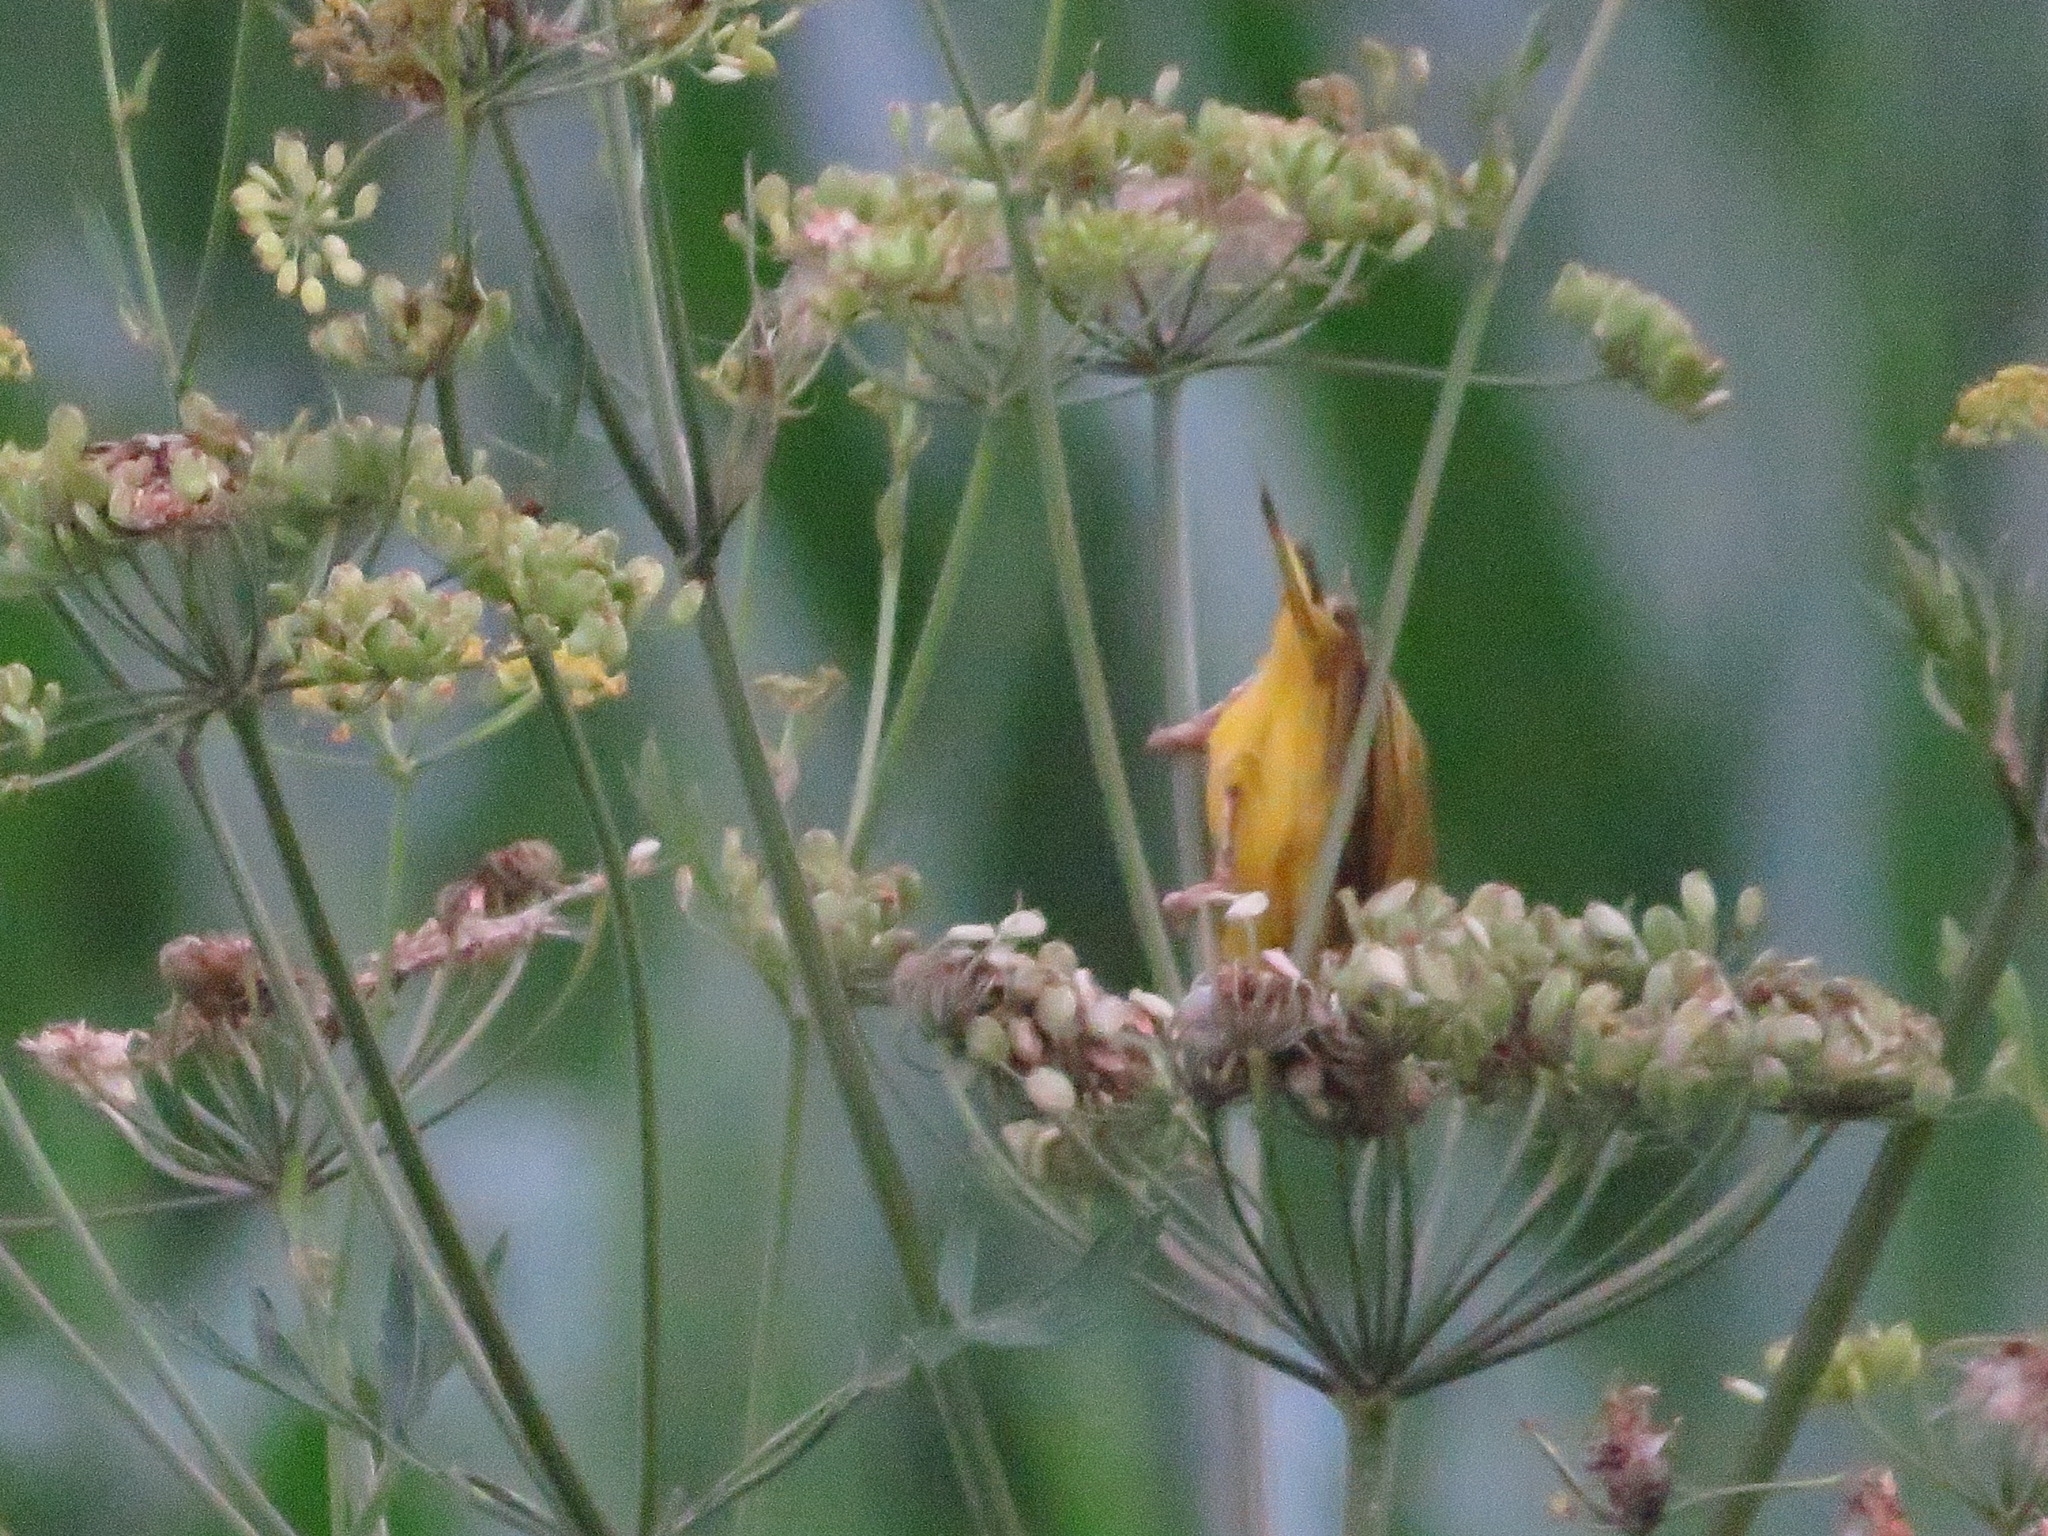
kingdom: Animalia
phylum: Chordata
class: Aves
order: Passeriformes
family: Parulidae
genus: Setophaga
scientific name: Setophaga petechia
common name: Yellow warbler
